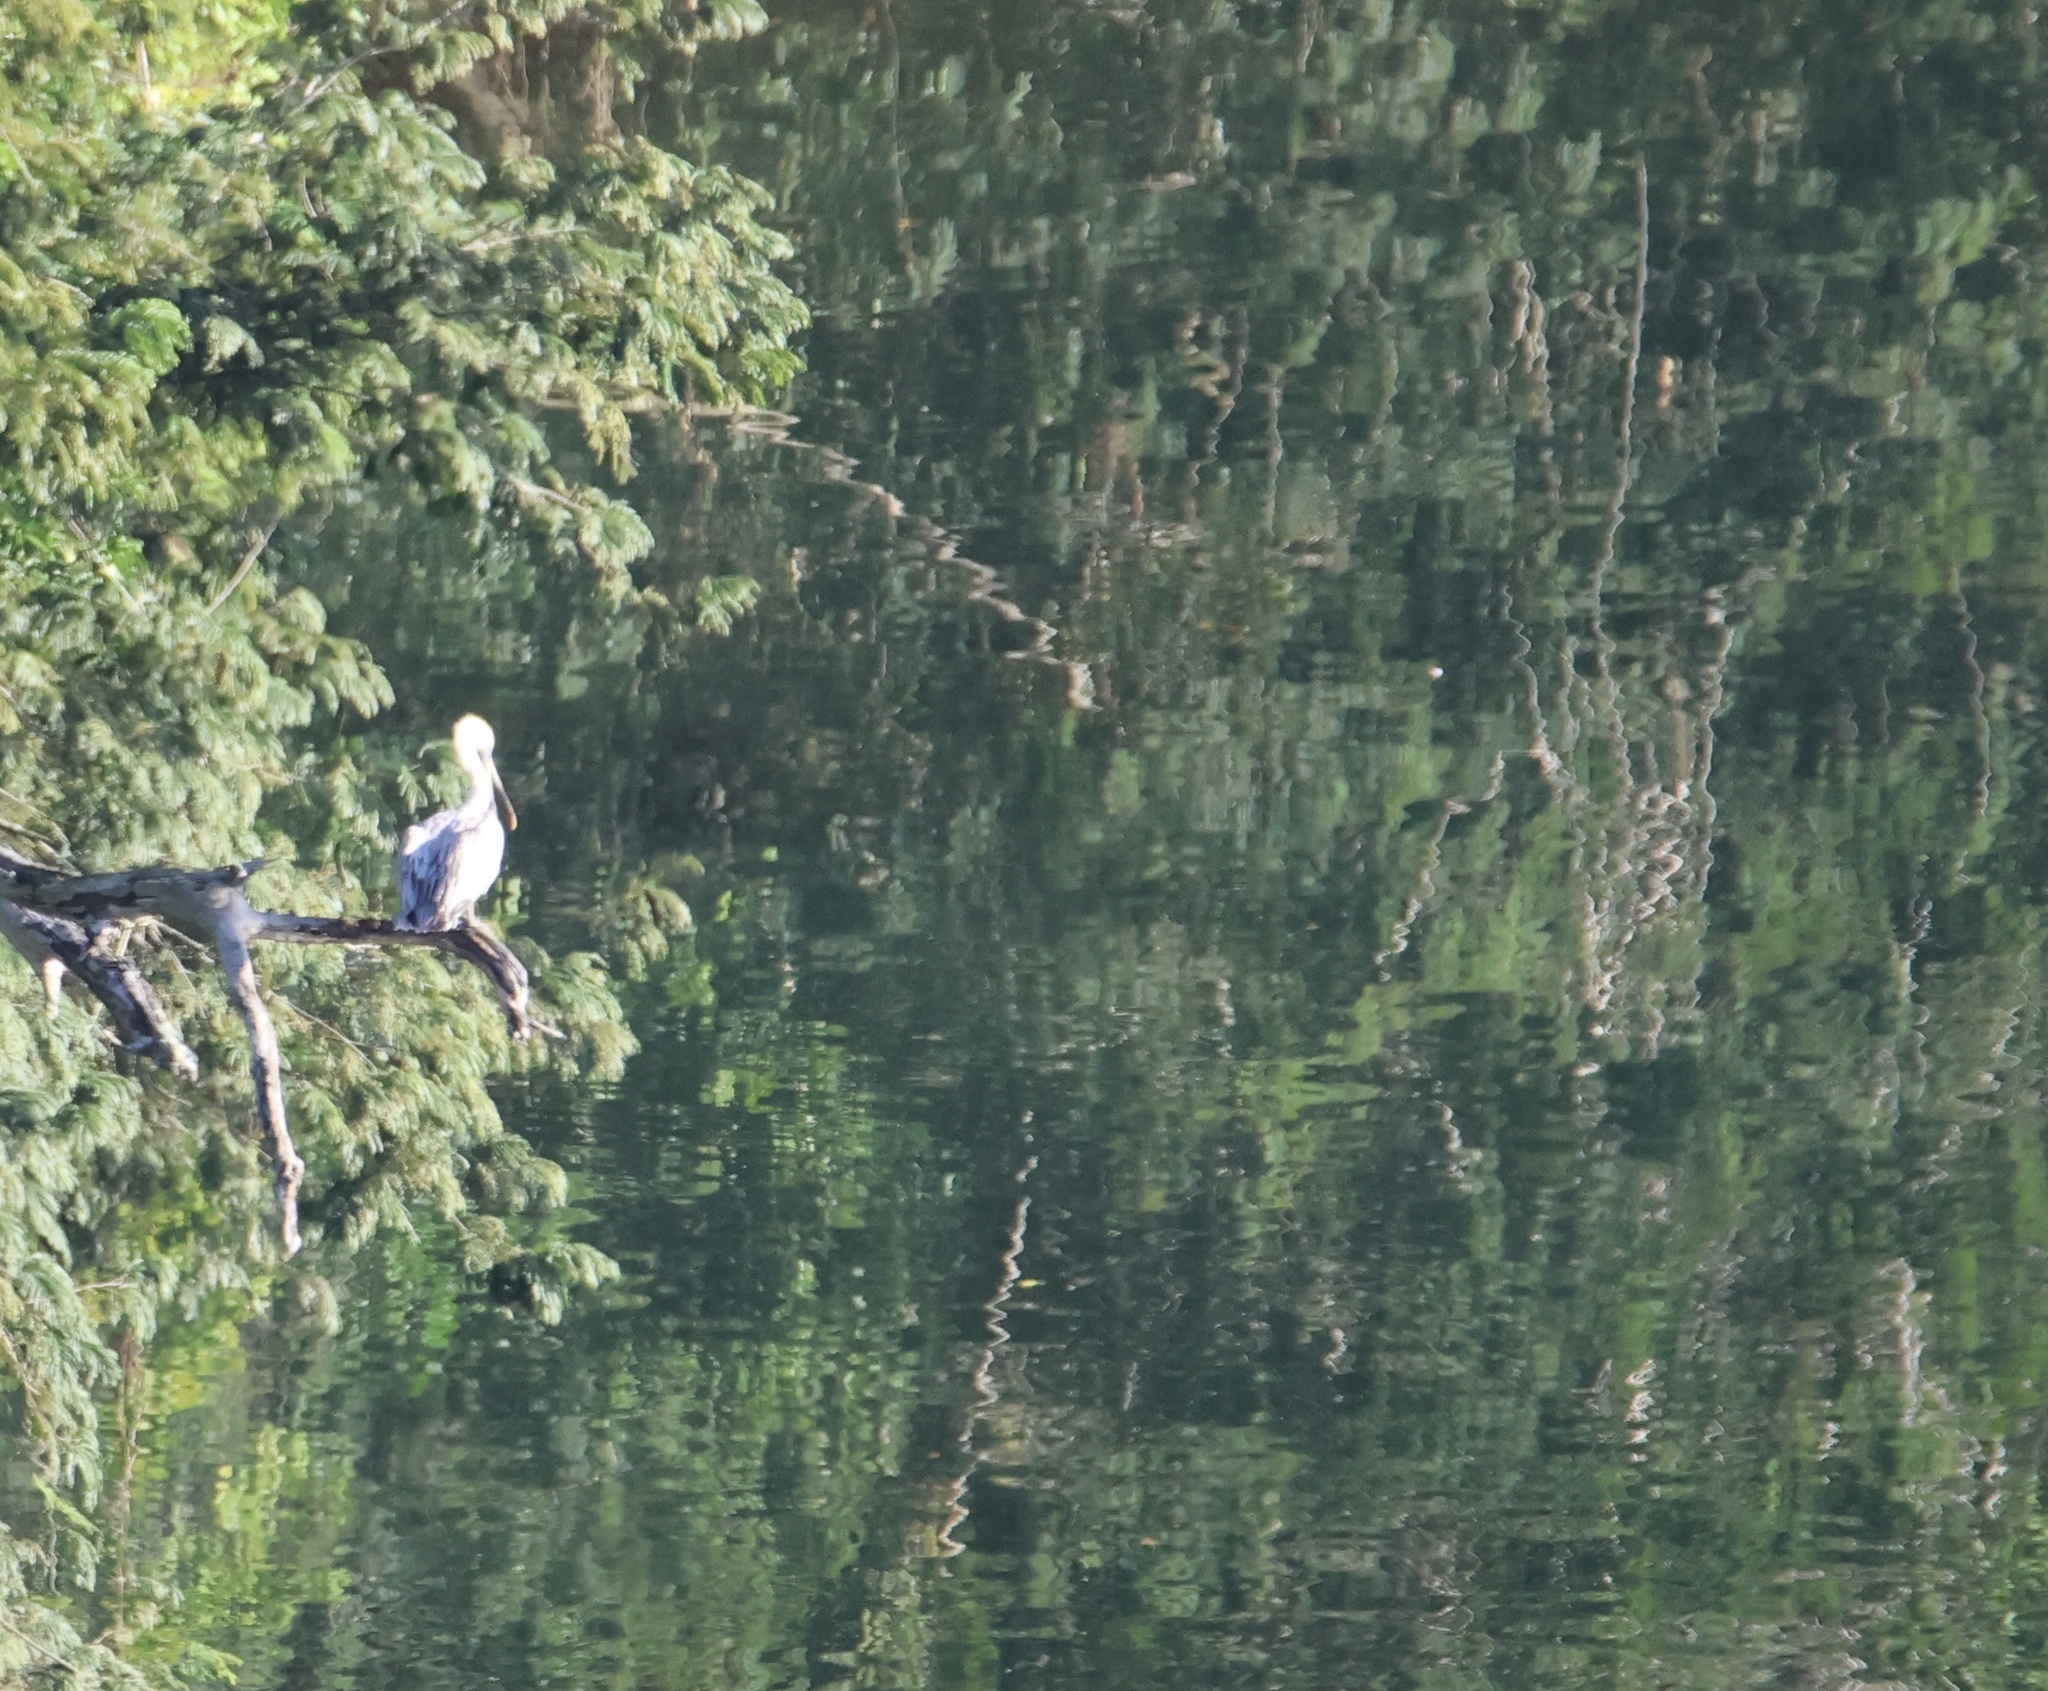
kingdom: Animalia
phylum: Chordata
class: Aves
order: Pelecaniformes
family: Pelecanidae
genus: Pelecanus
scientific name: Pelecanus occidentalis
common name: Brown pelican
